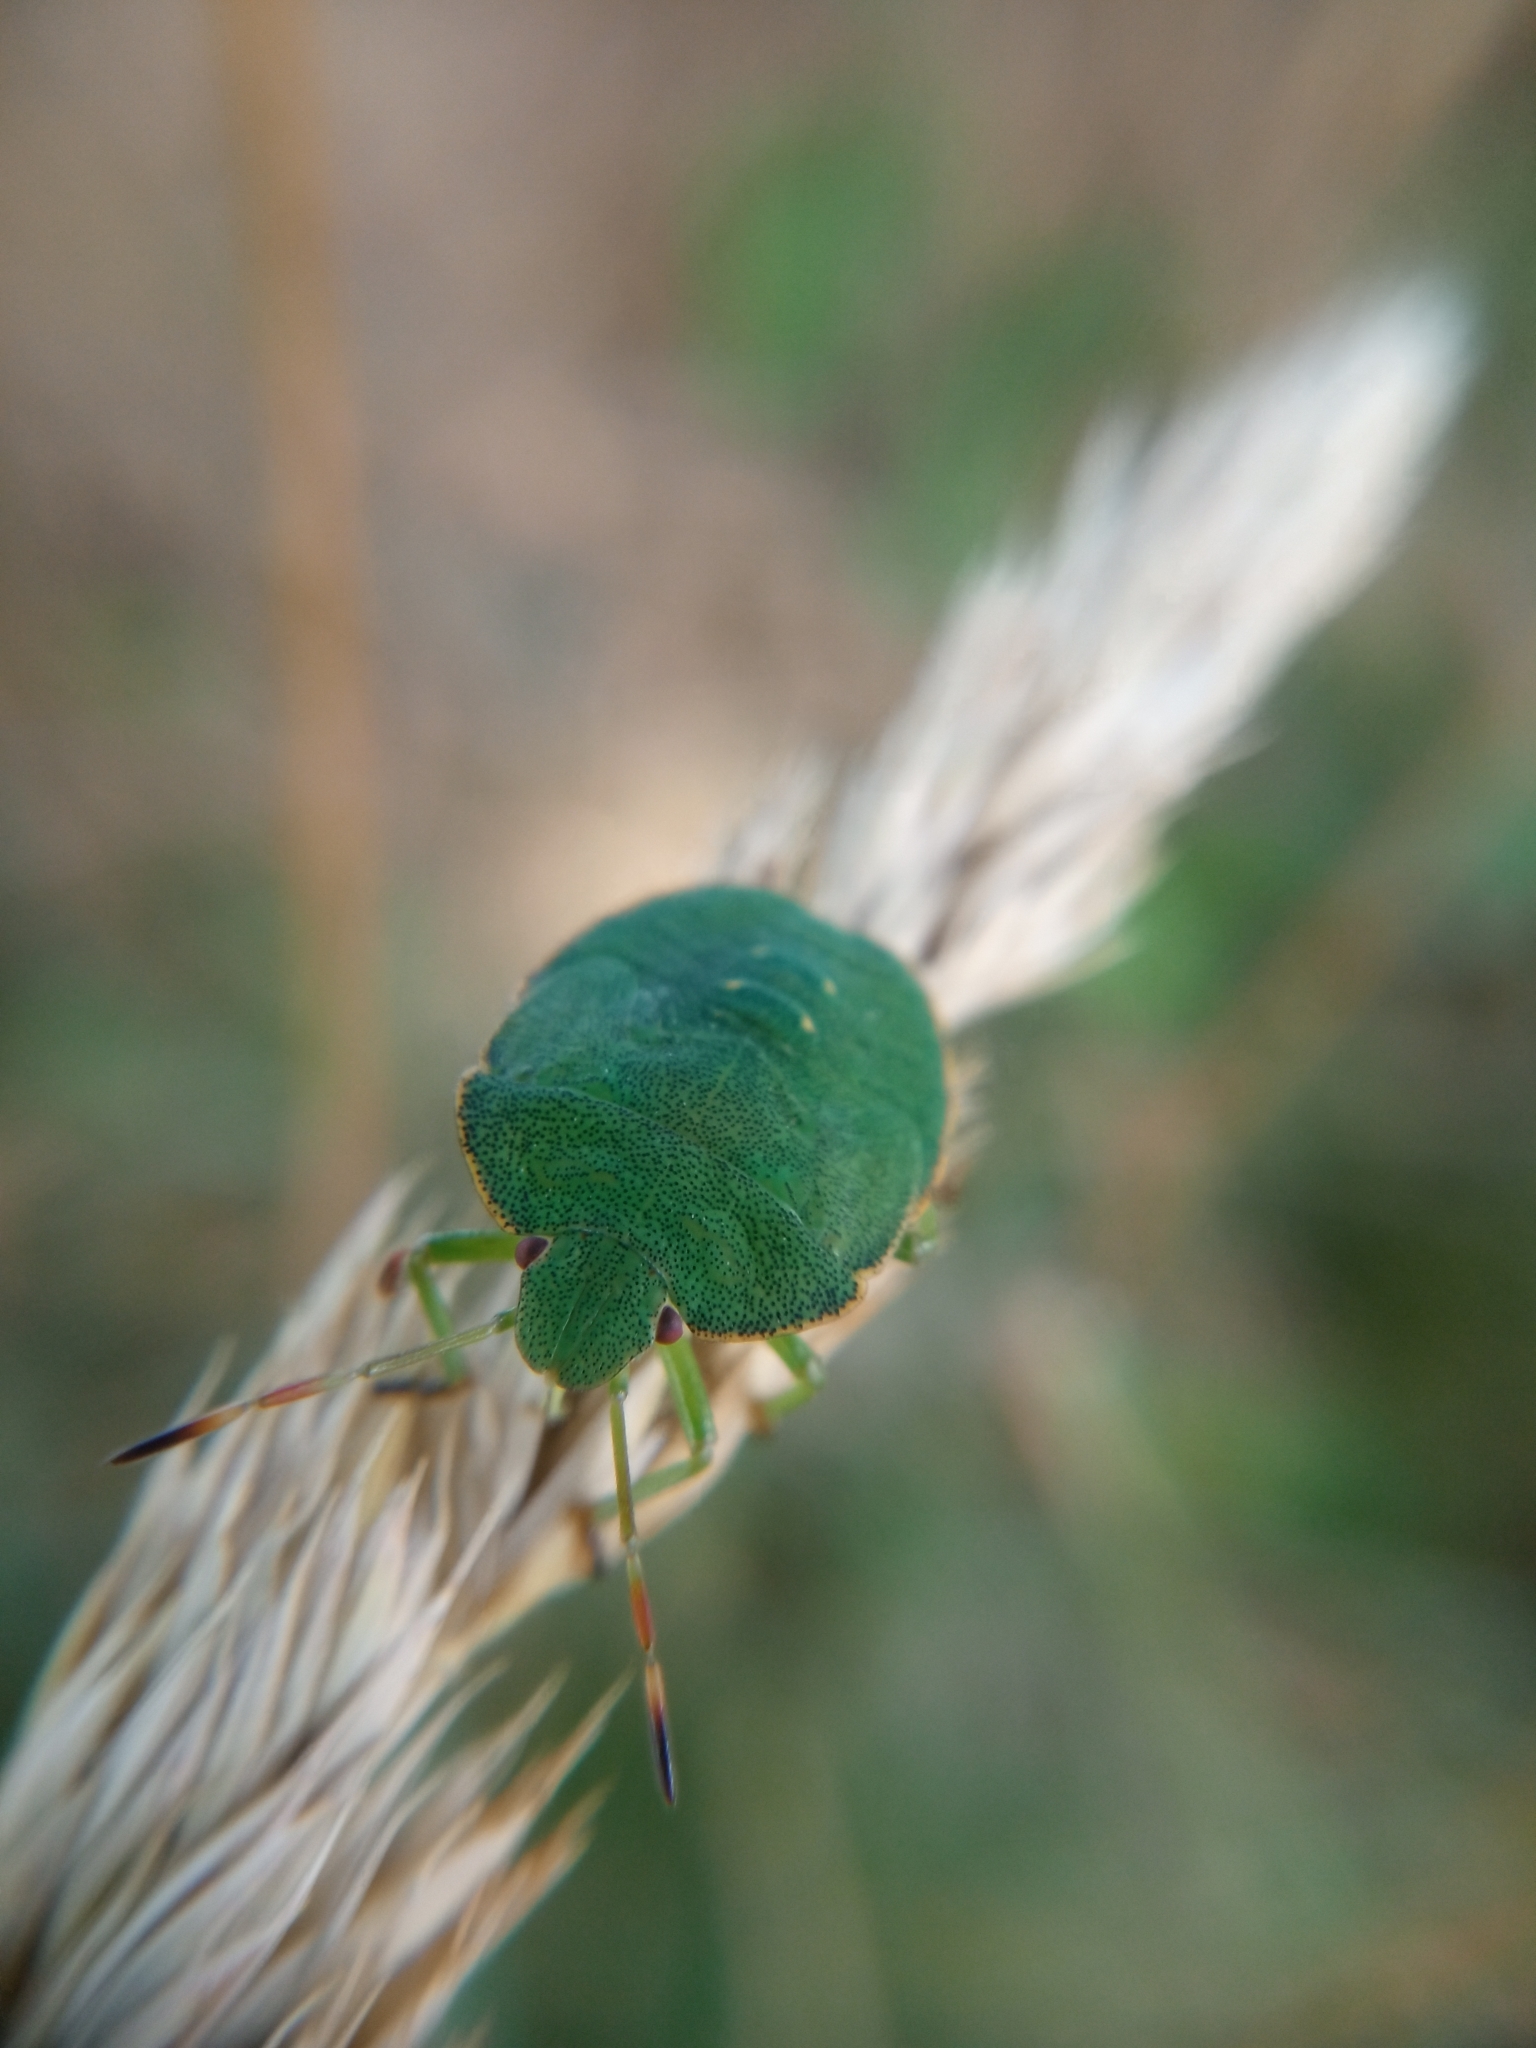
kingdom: Animalia
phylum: Arthropoda
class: Insecta
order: Hemiptera
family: Pentatomidae
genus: Palomena
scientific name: Palomena prasina
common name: Green shieldbug
